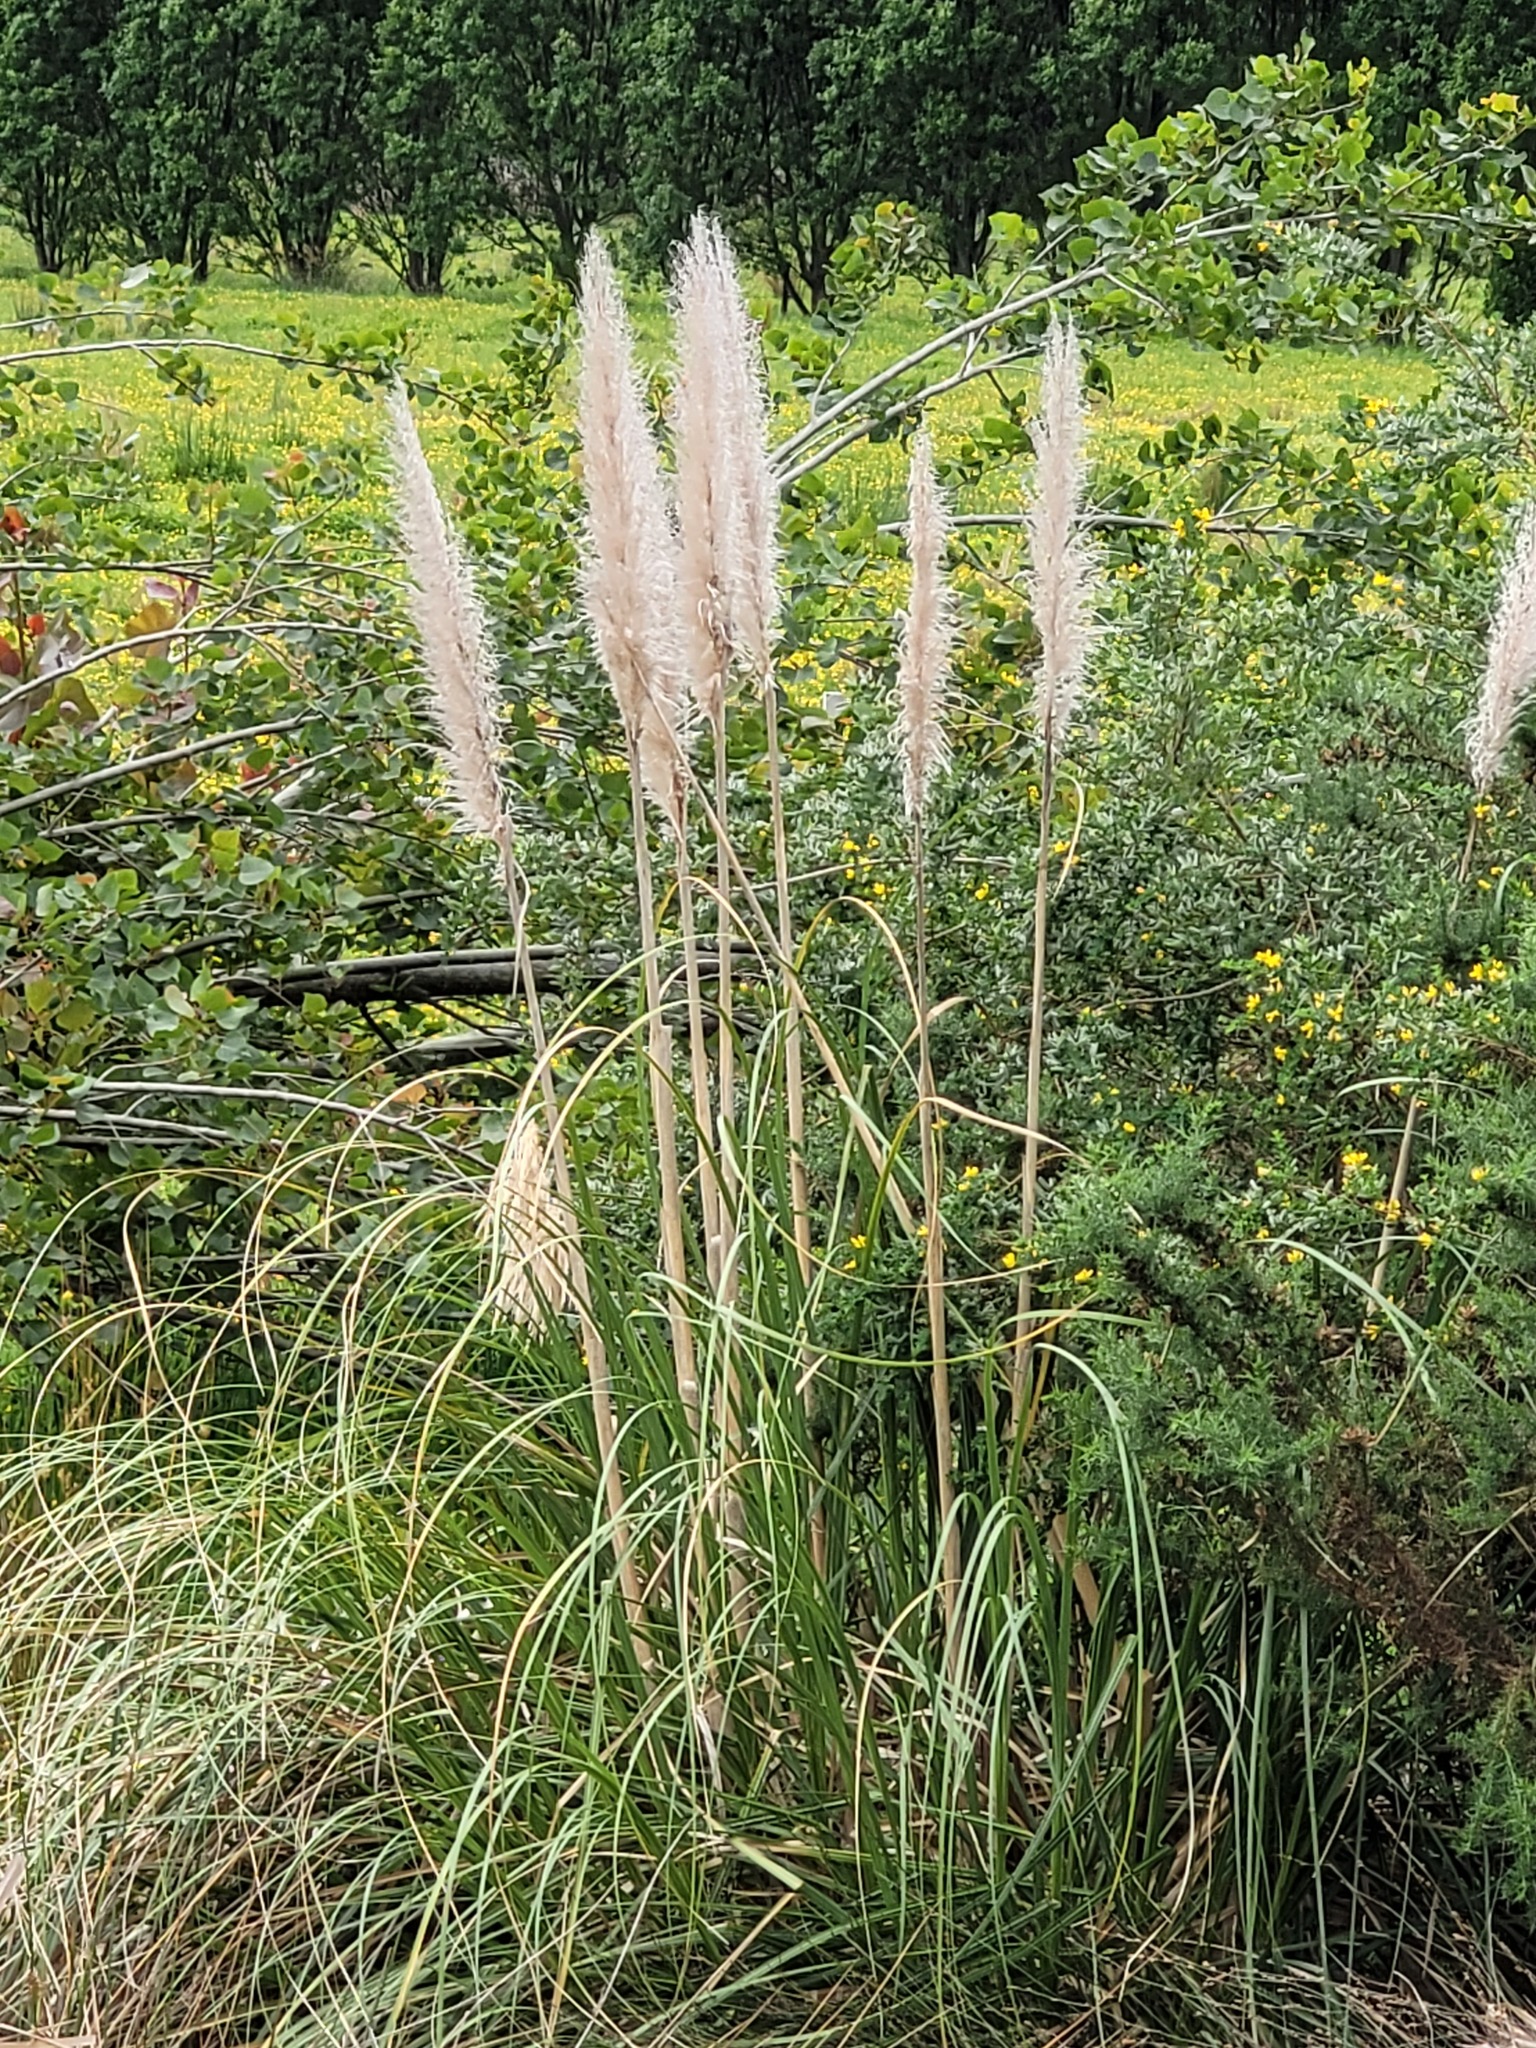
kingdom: Plantae
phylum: Tracheophyta
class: Liliopsida
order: Poales
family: Poaceae
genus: Cortaderia
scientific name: Cortaderia selloana
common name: Uruguayan pampas grass
